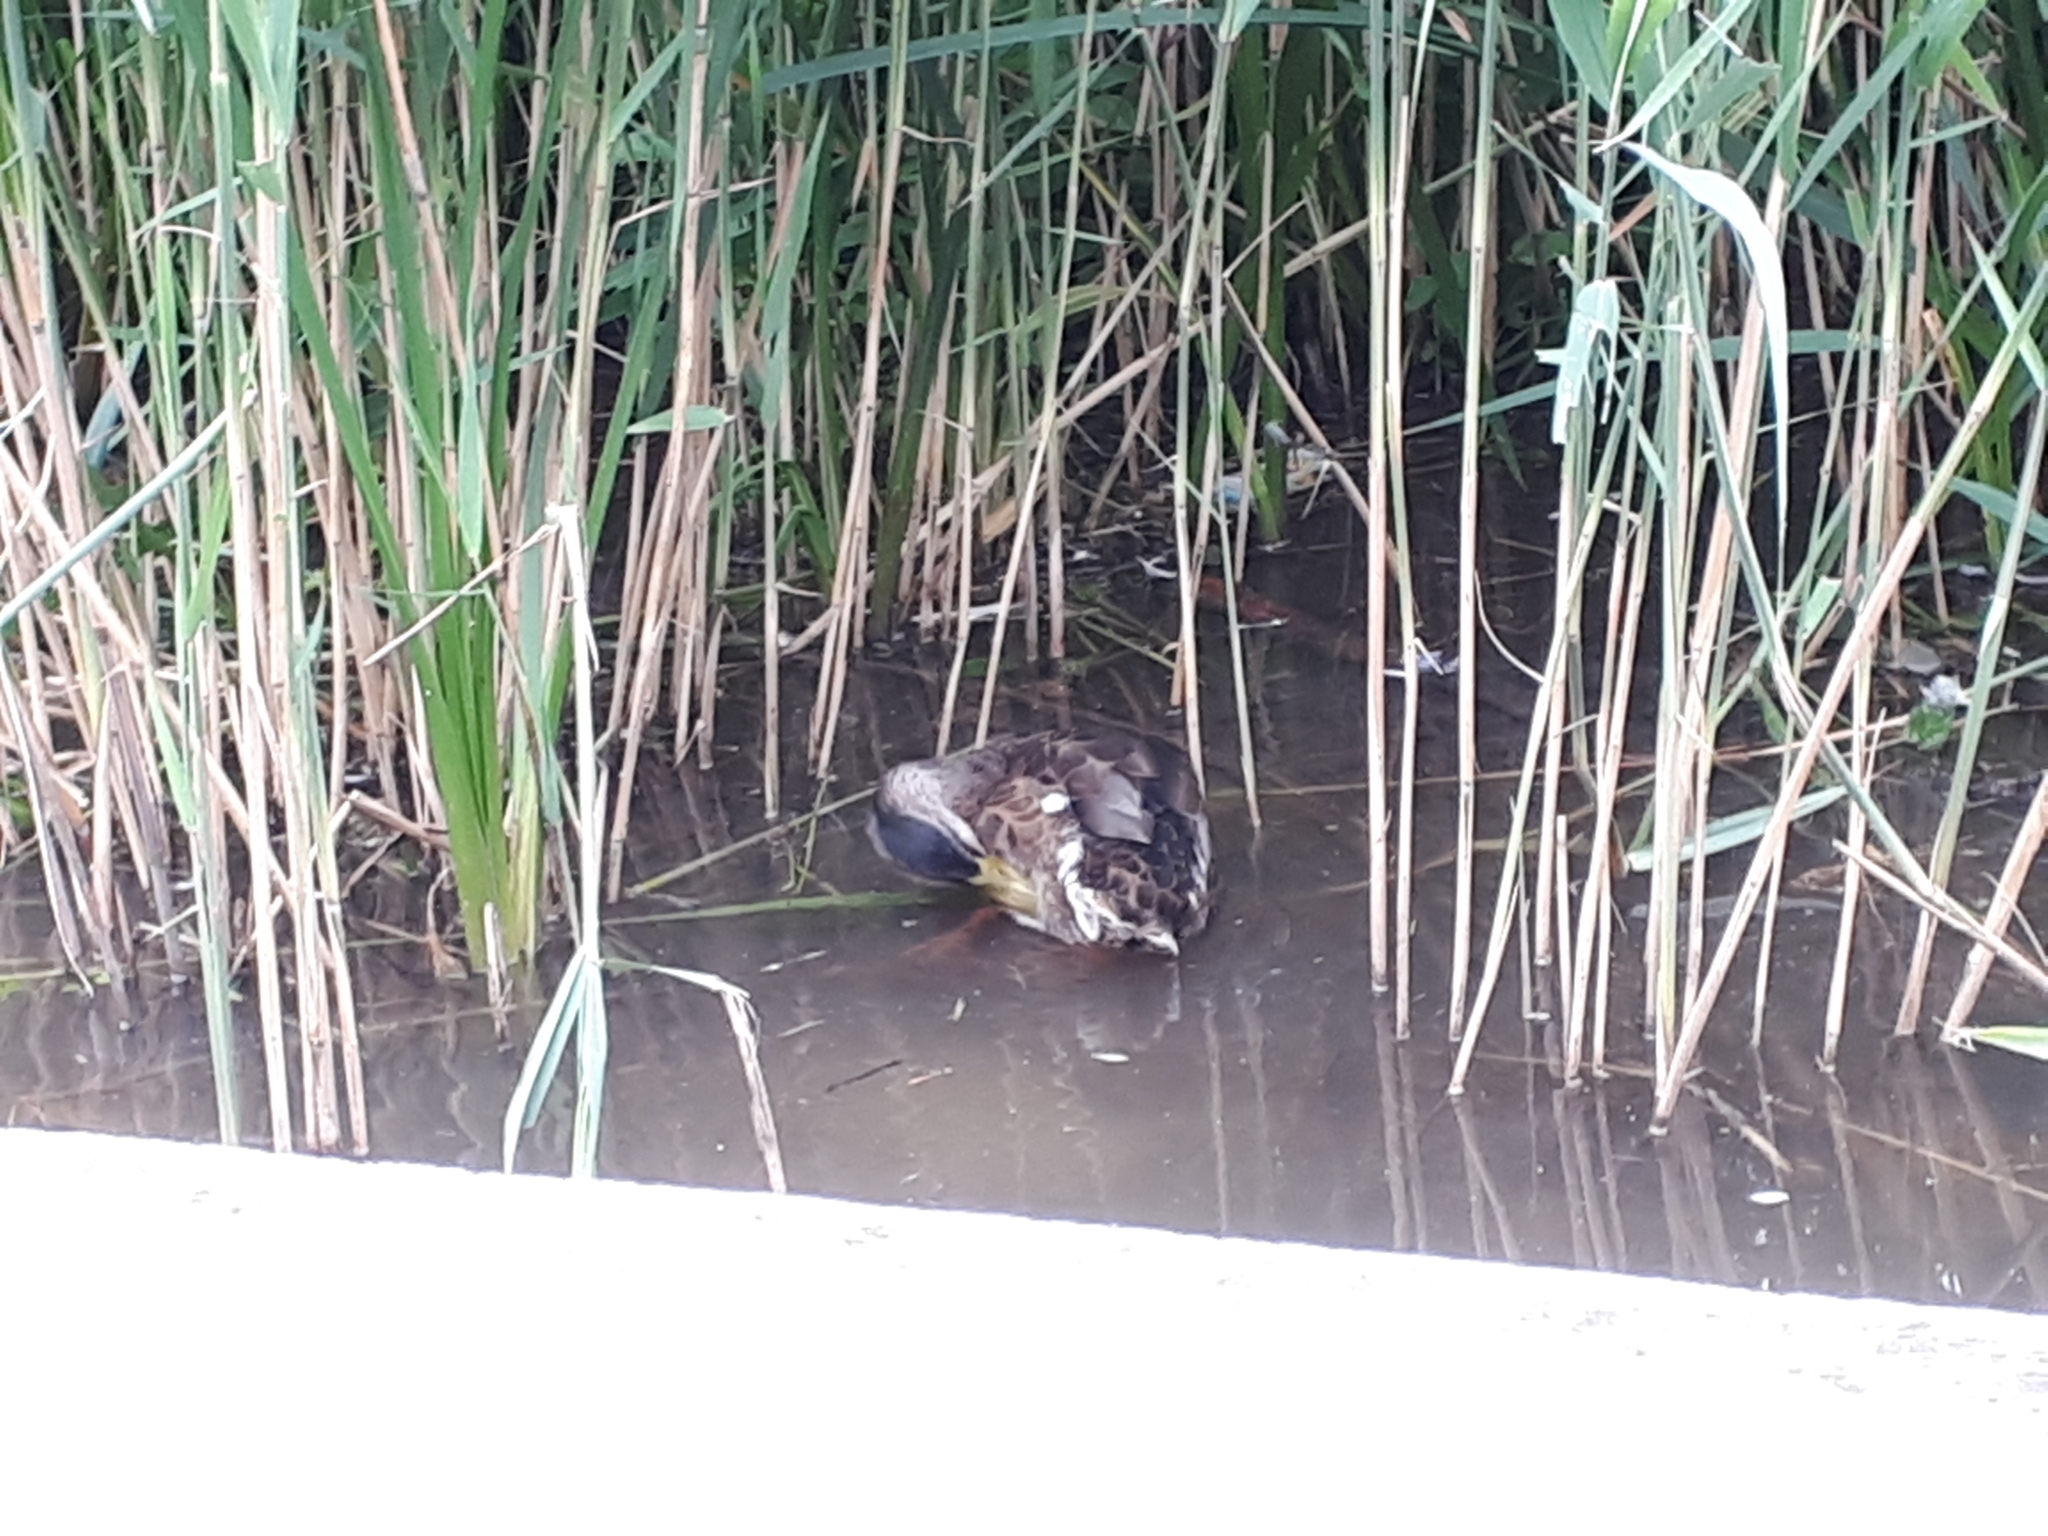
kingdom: Animalia
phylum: Chordata
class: Aves
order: Anseriformes
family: Anatidae
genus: Anas
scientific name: Anas platyrhynchos
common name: Mallard
